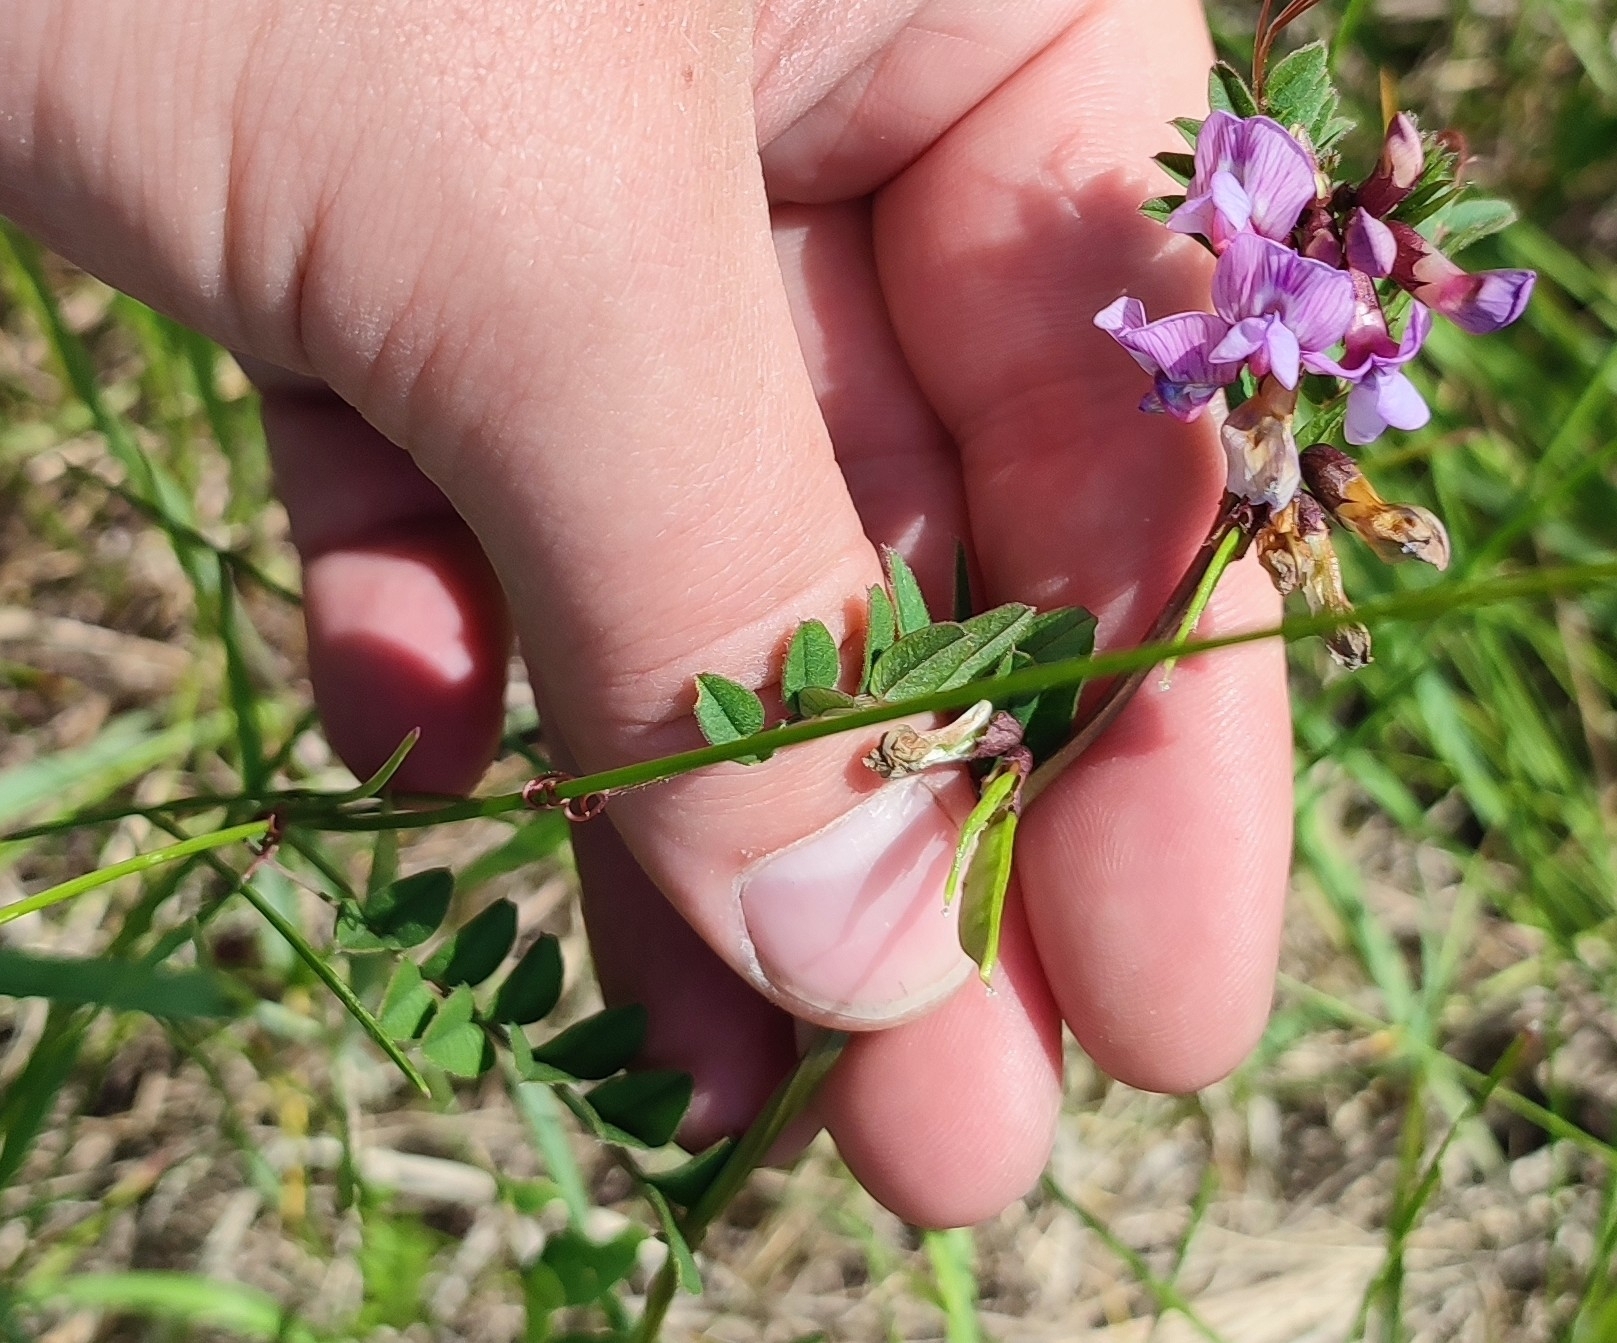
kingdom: Plantae
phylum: Tracheophyta
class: Magnoliopsida
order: Fabales
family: Fabaceae
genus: Vicia
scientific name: Vicia sepium
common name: Bush vetch
